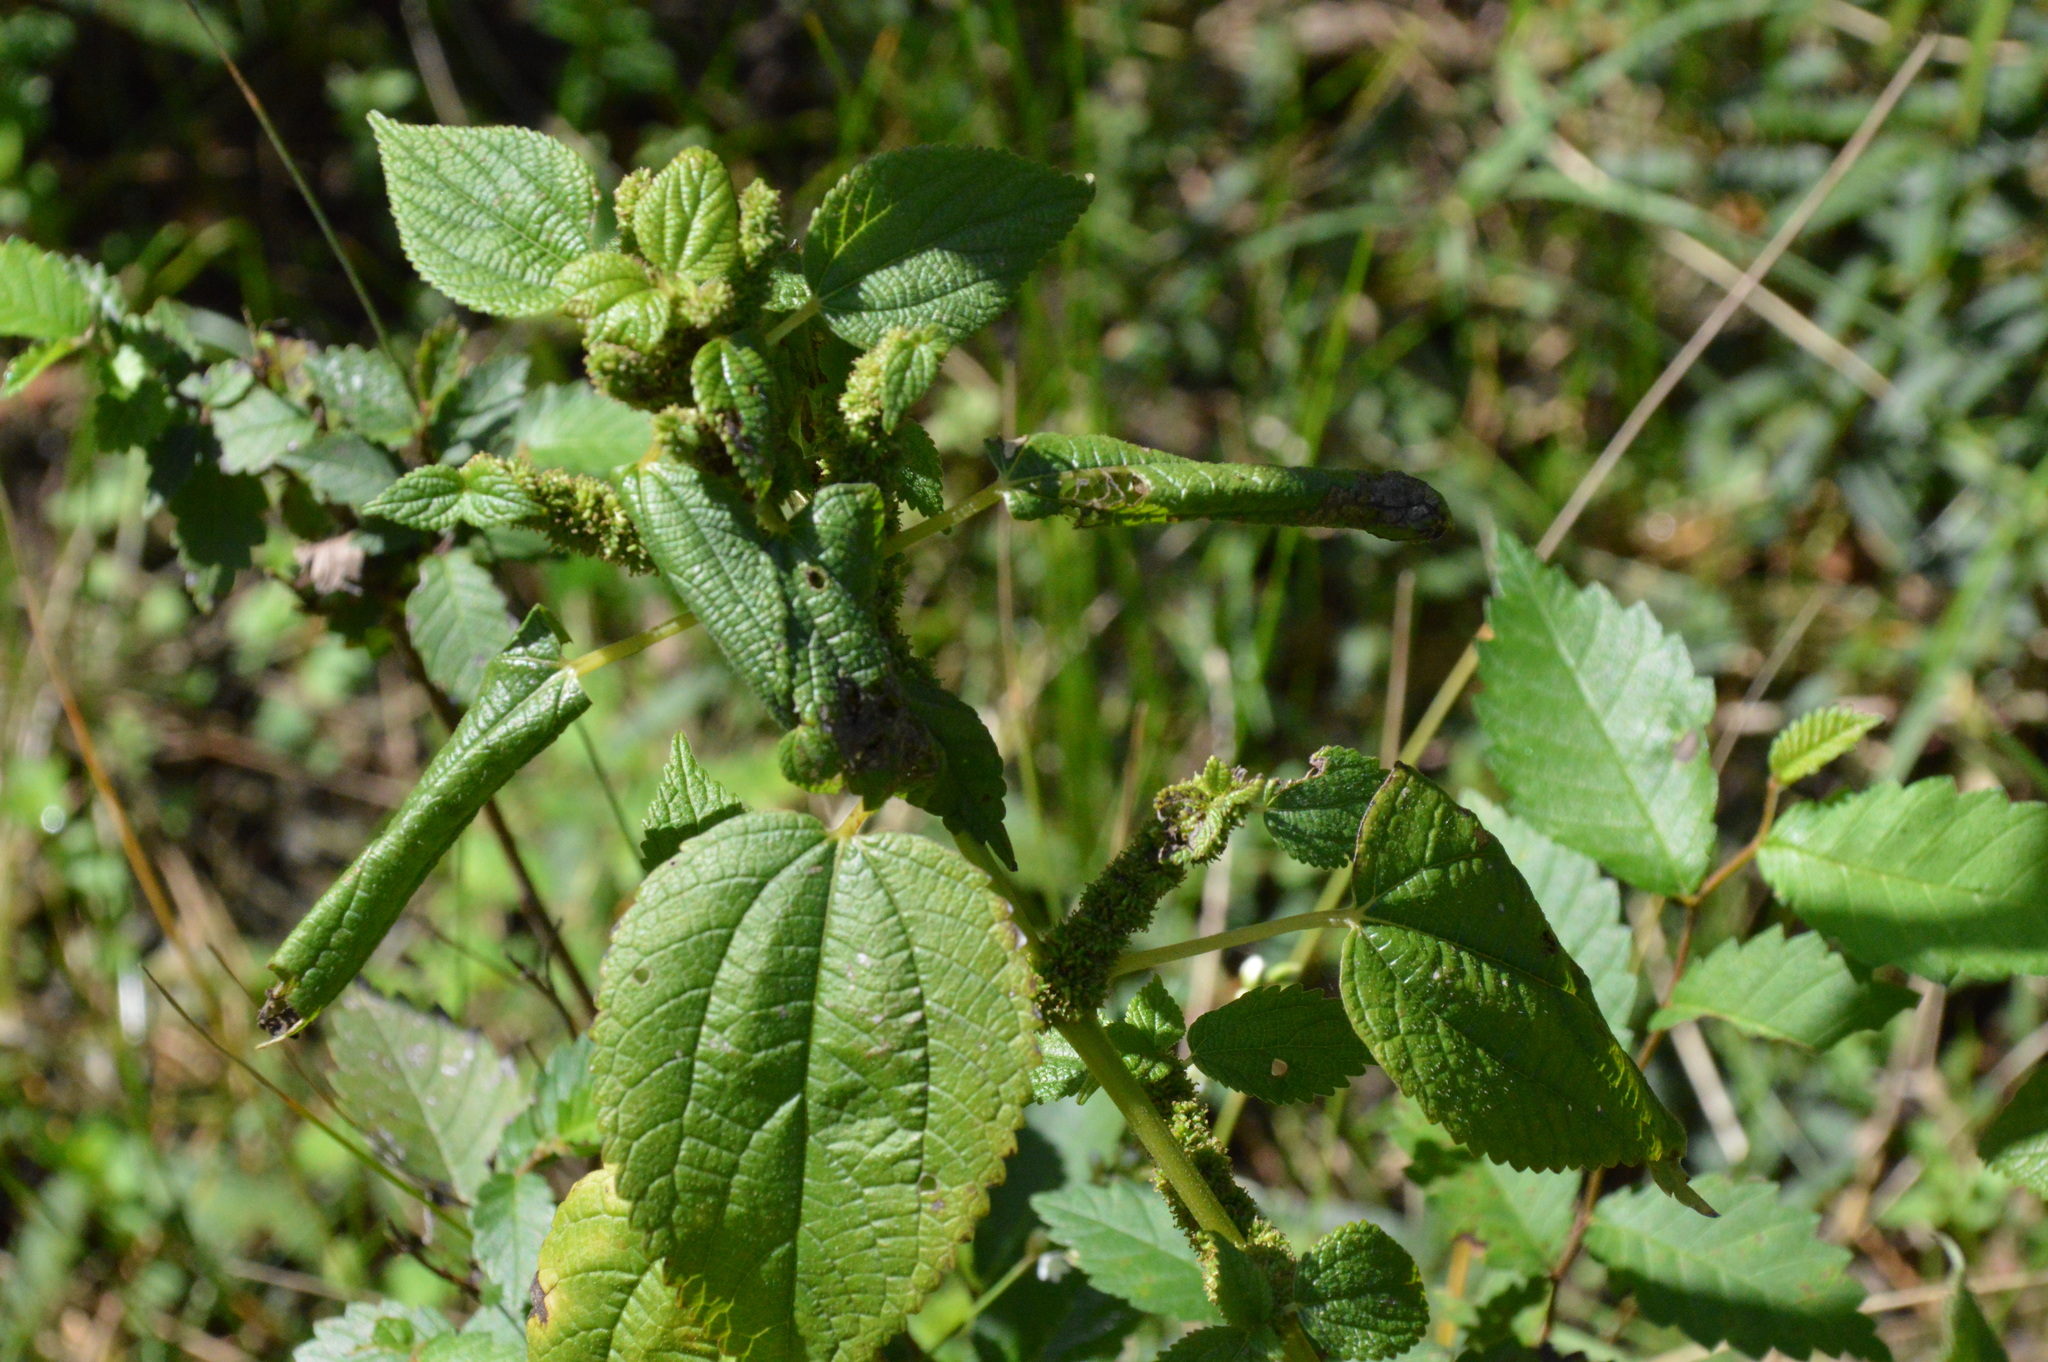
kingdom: Plantae
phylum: Tracheophyta
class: Magnoliopsida
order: Rosales
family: Urticaceae
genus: Boehmeria
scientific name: Boehmeria cylindrica
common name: Bog-hemp
